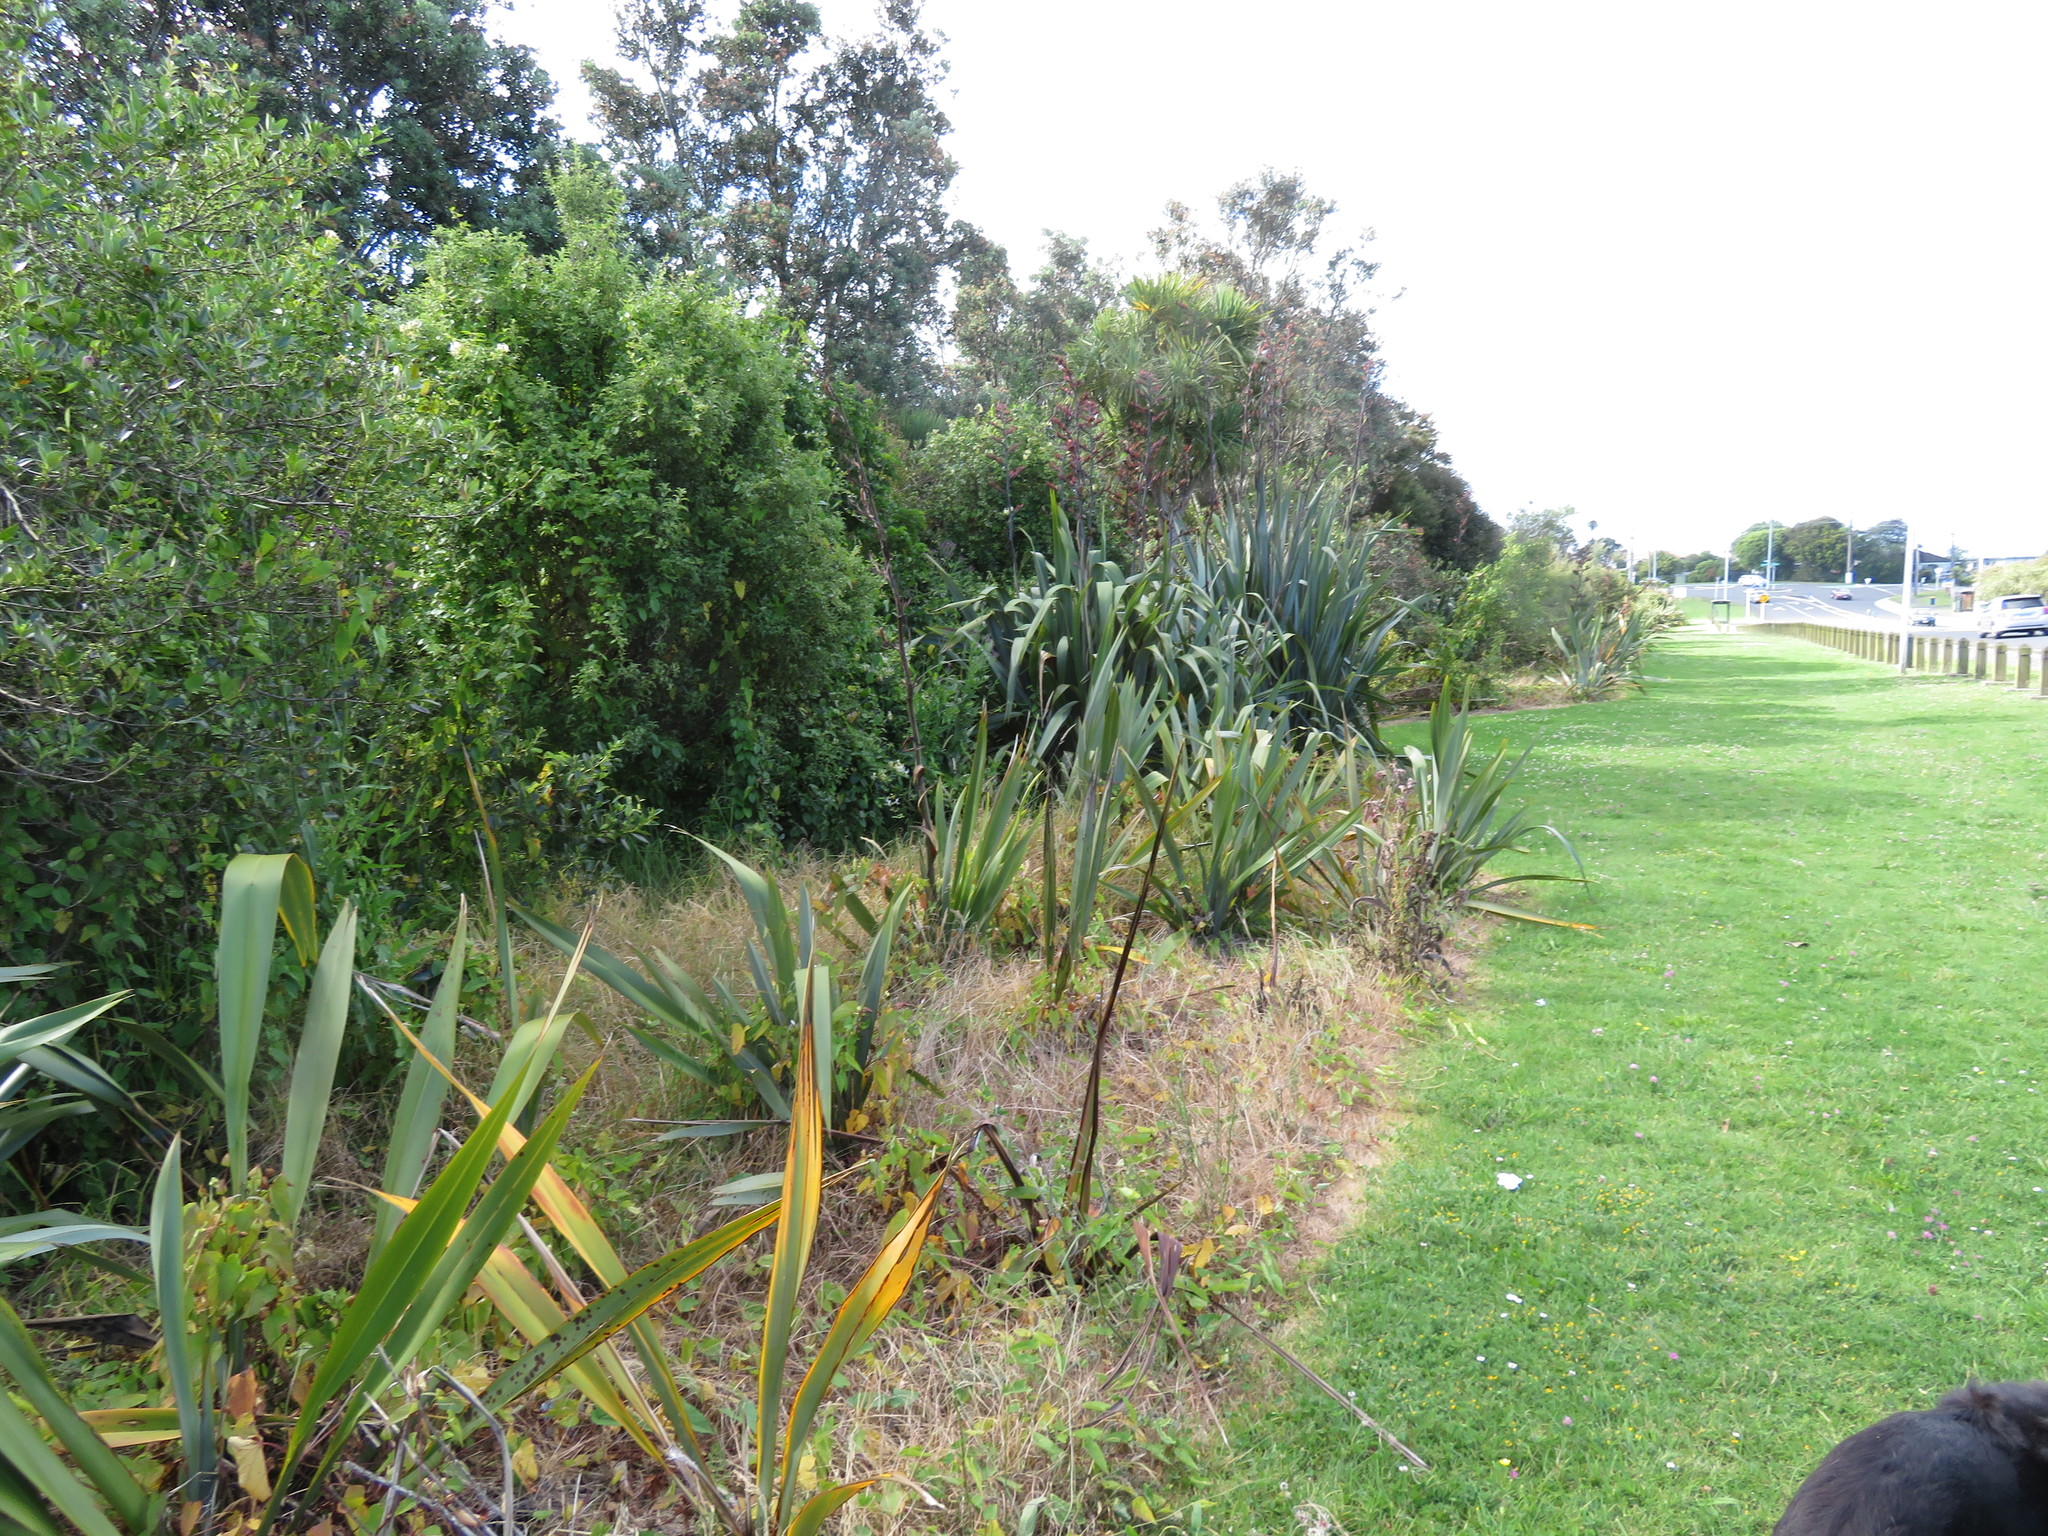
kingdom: Plantae
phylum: Tracheophyta
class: Magnoliopsida
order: Dipsacales
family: Caprifoliaceae
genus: Lonicera
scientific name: Lonicera japonica
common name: Japanese honeysuckle
